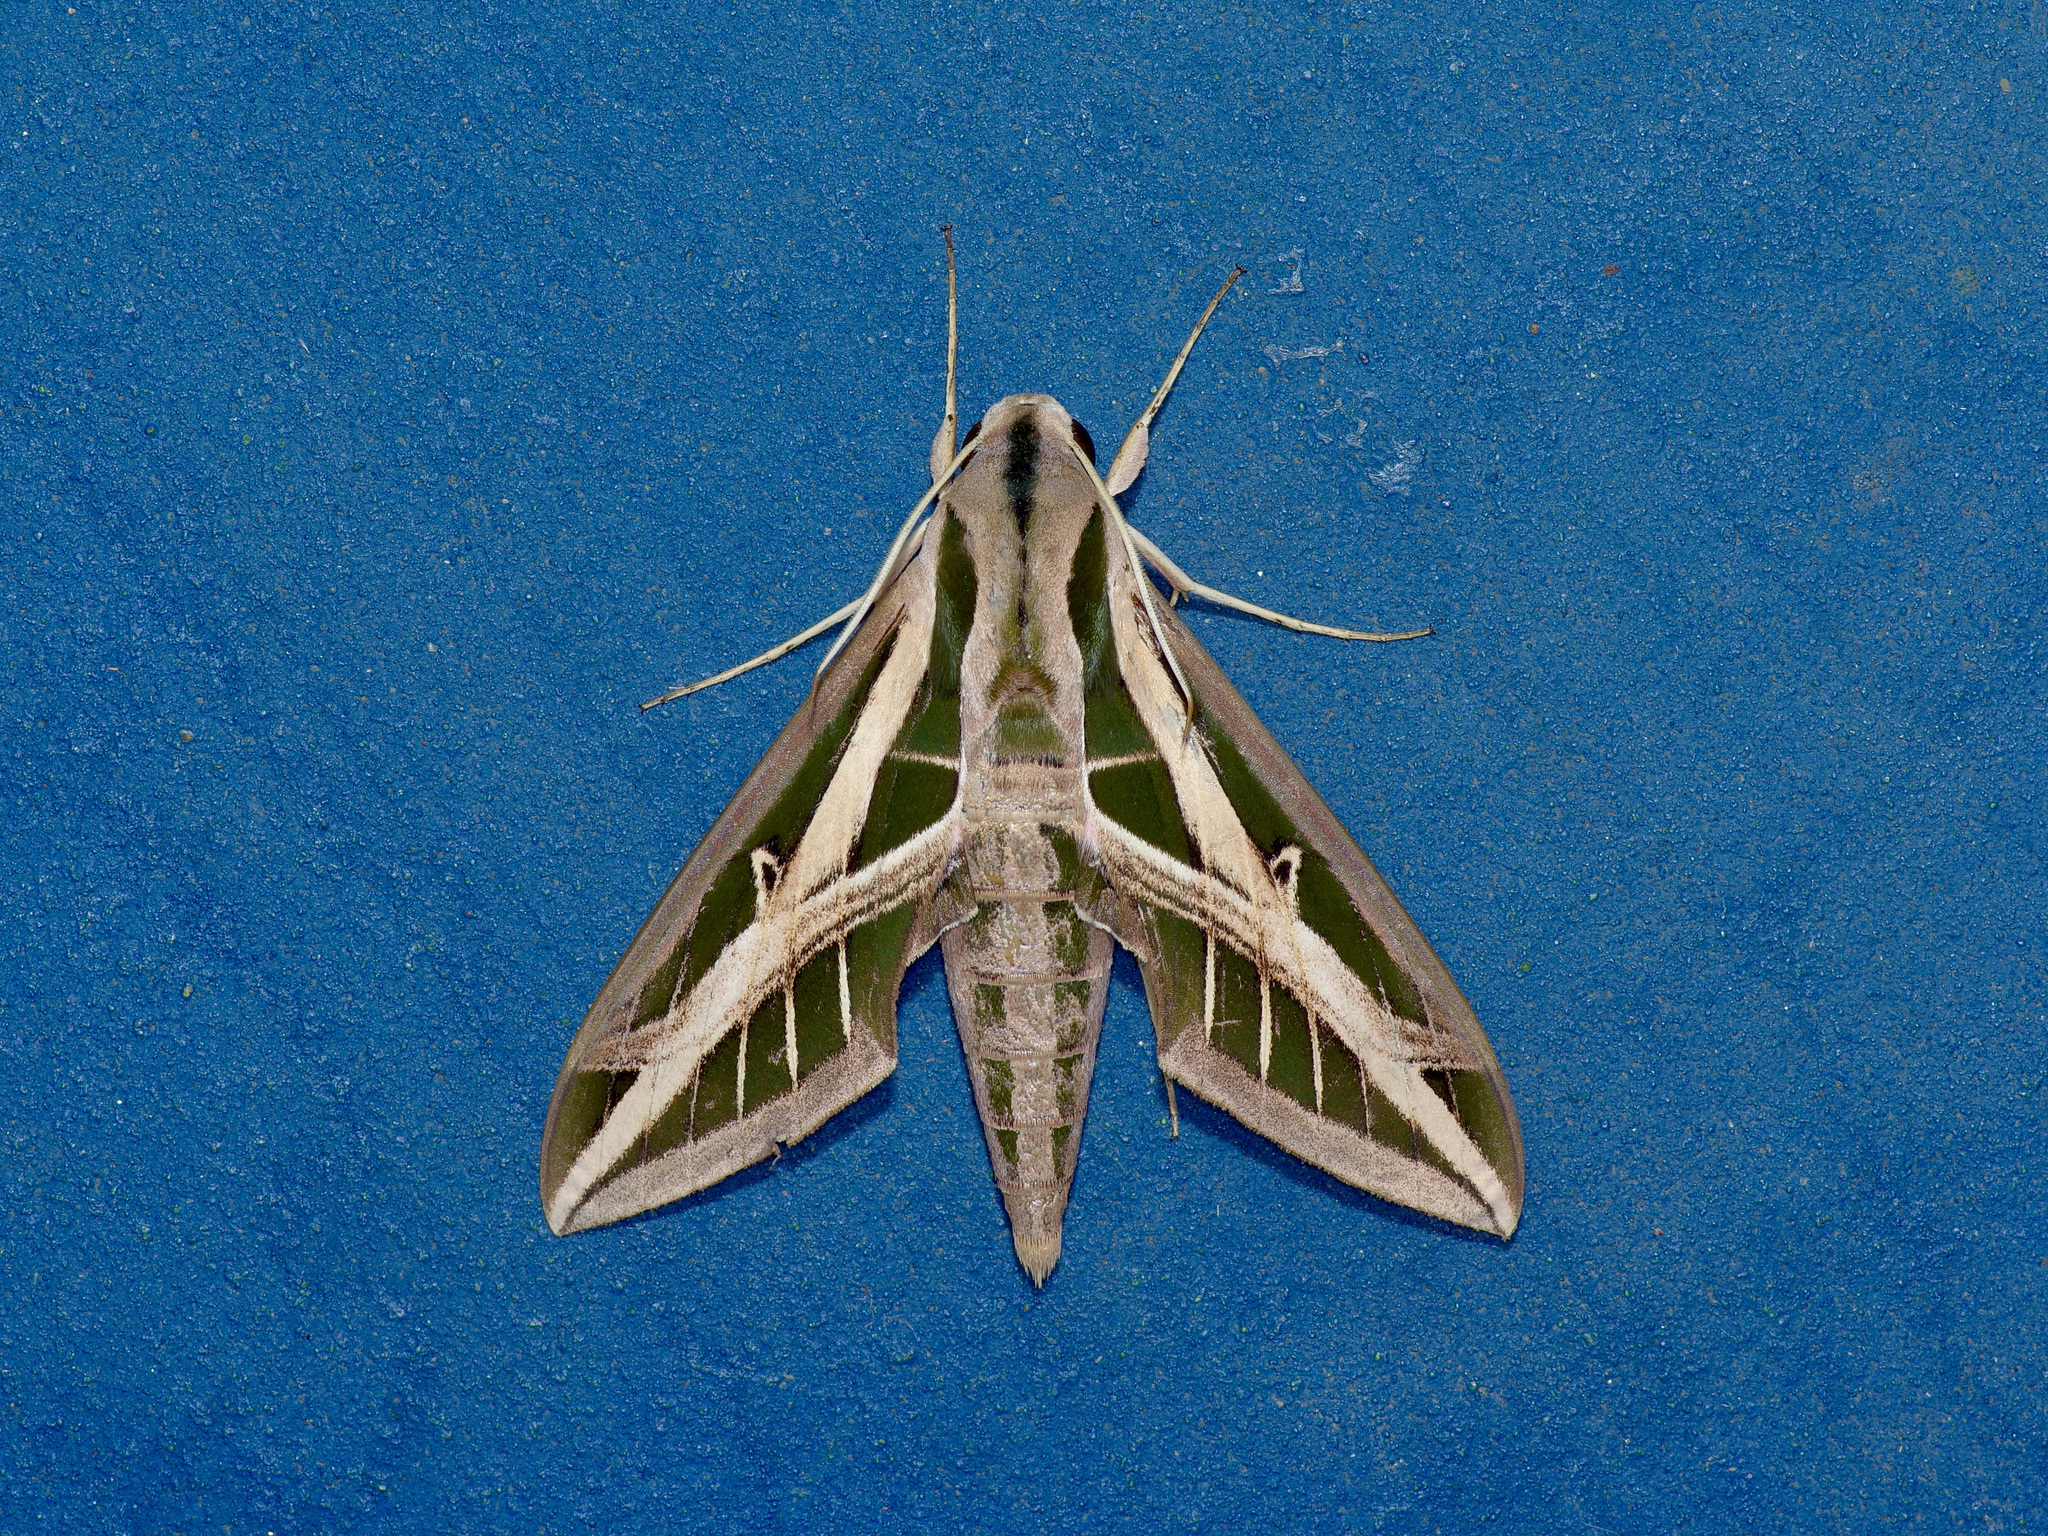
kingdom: Animalia
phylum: Arthropoda
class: Insecta
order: Lepidoptera
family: Sphingidae
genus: Eumorpha
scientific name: Eumorpha fasciatus
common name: Banded sphinx
